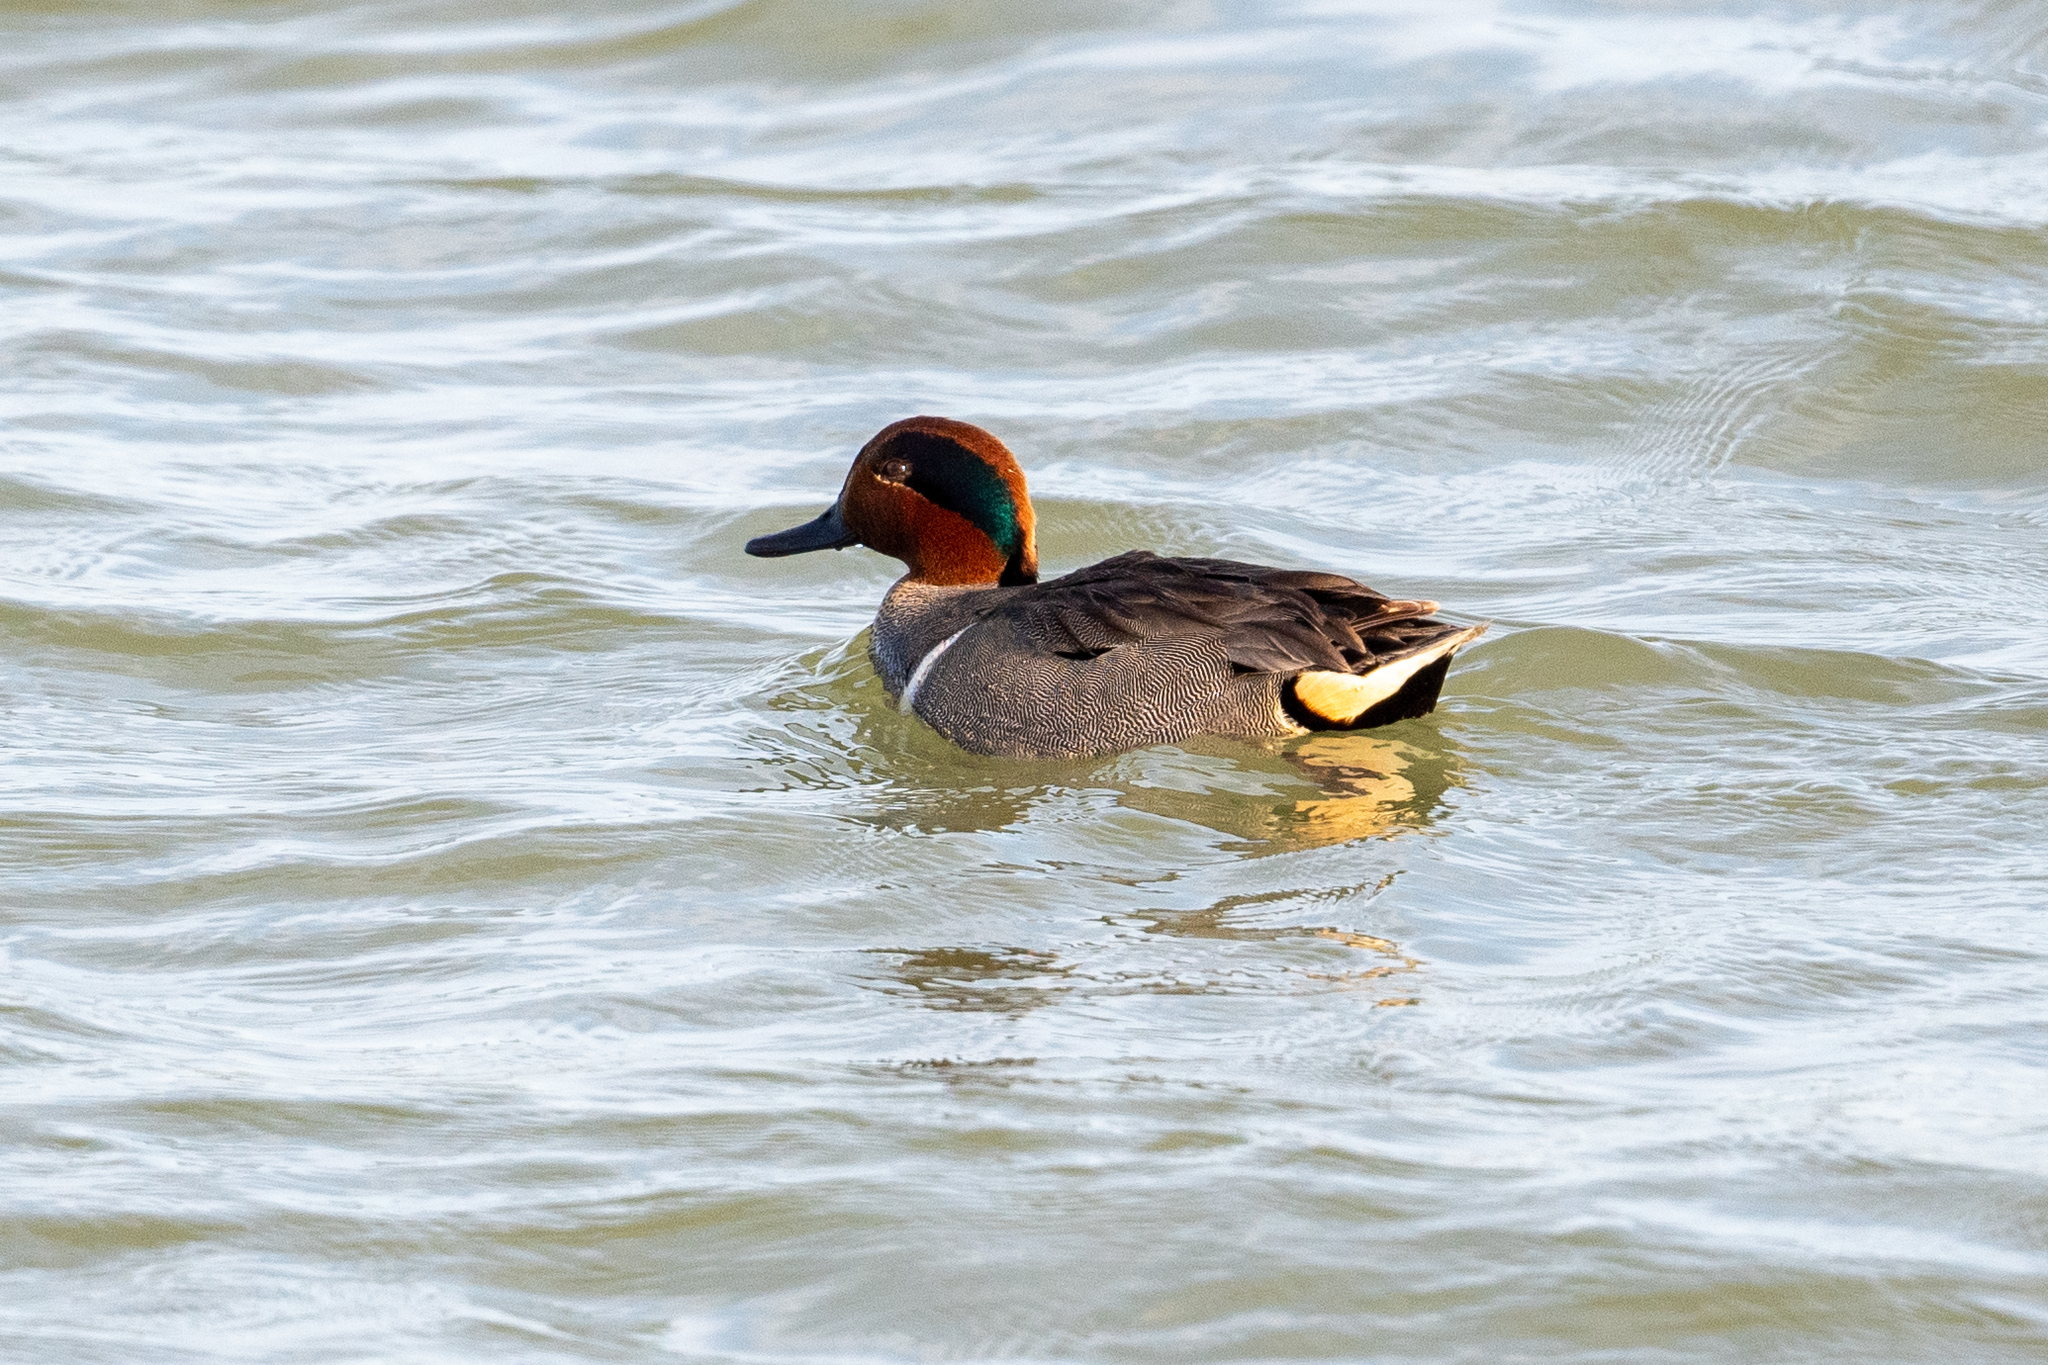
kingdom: Animalia
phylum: Chordata
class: Aves
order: Anseriformes
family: Anatidae
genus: Anas
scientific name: Anas crecca
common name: Eurasian teal
